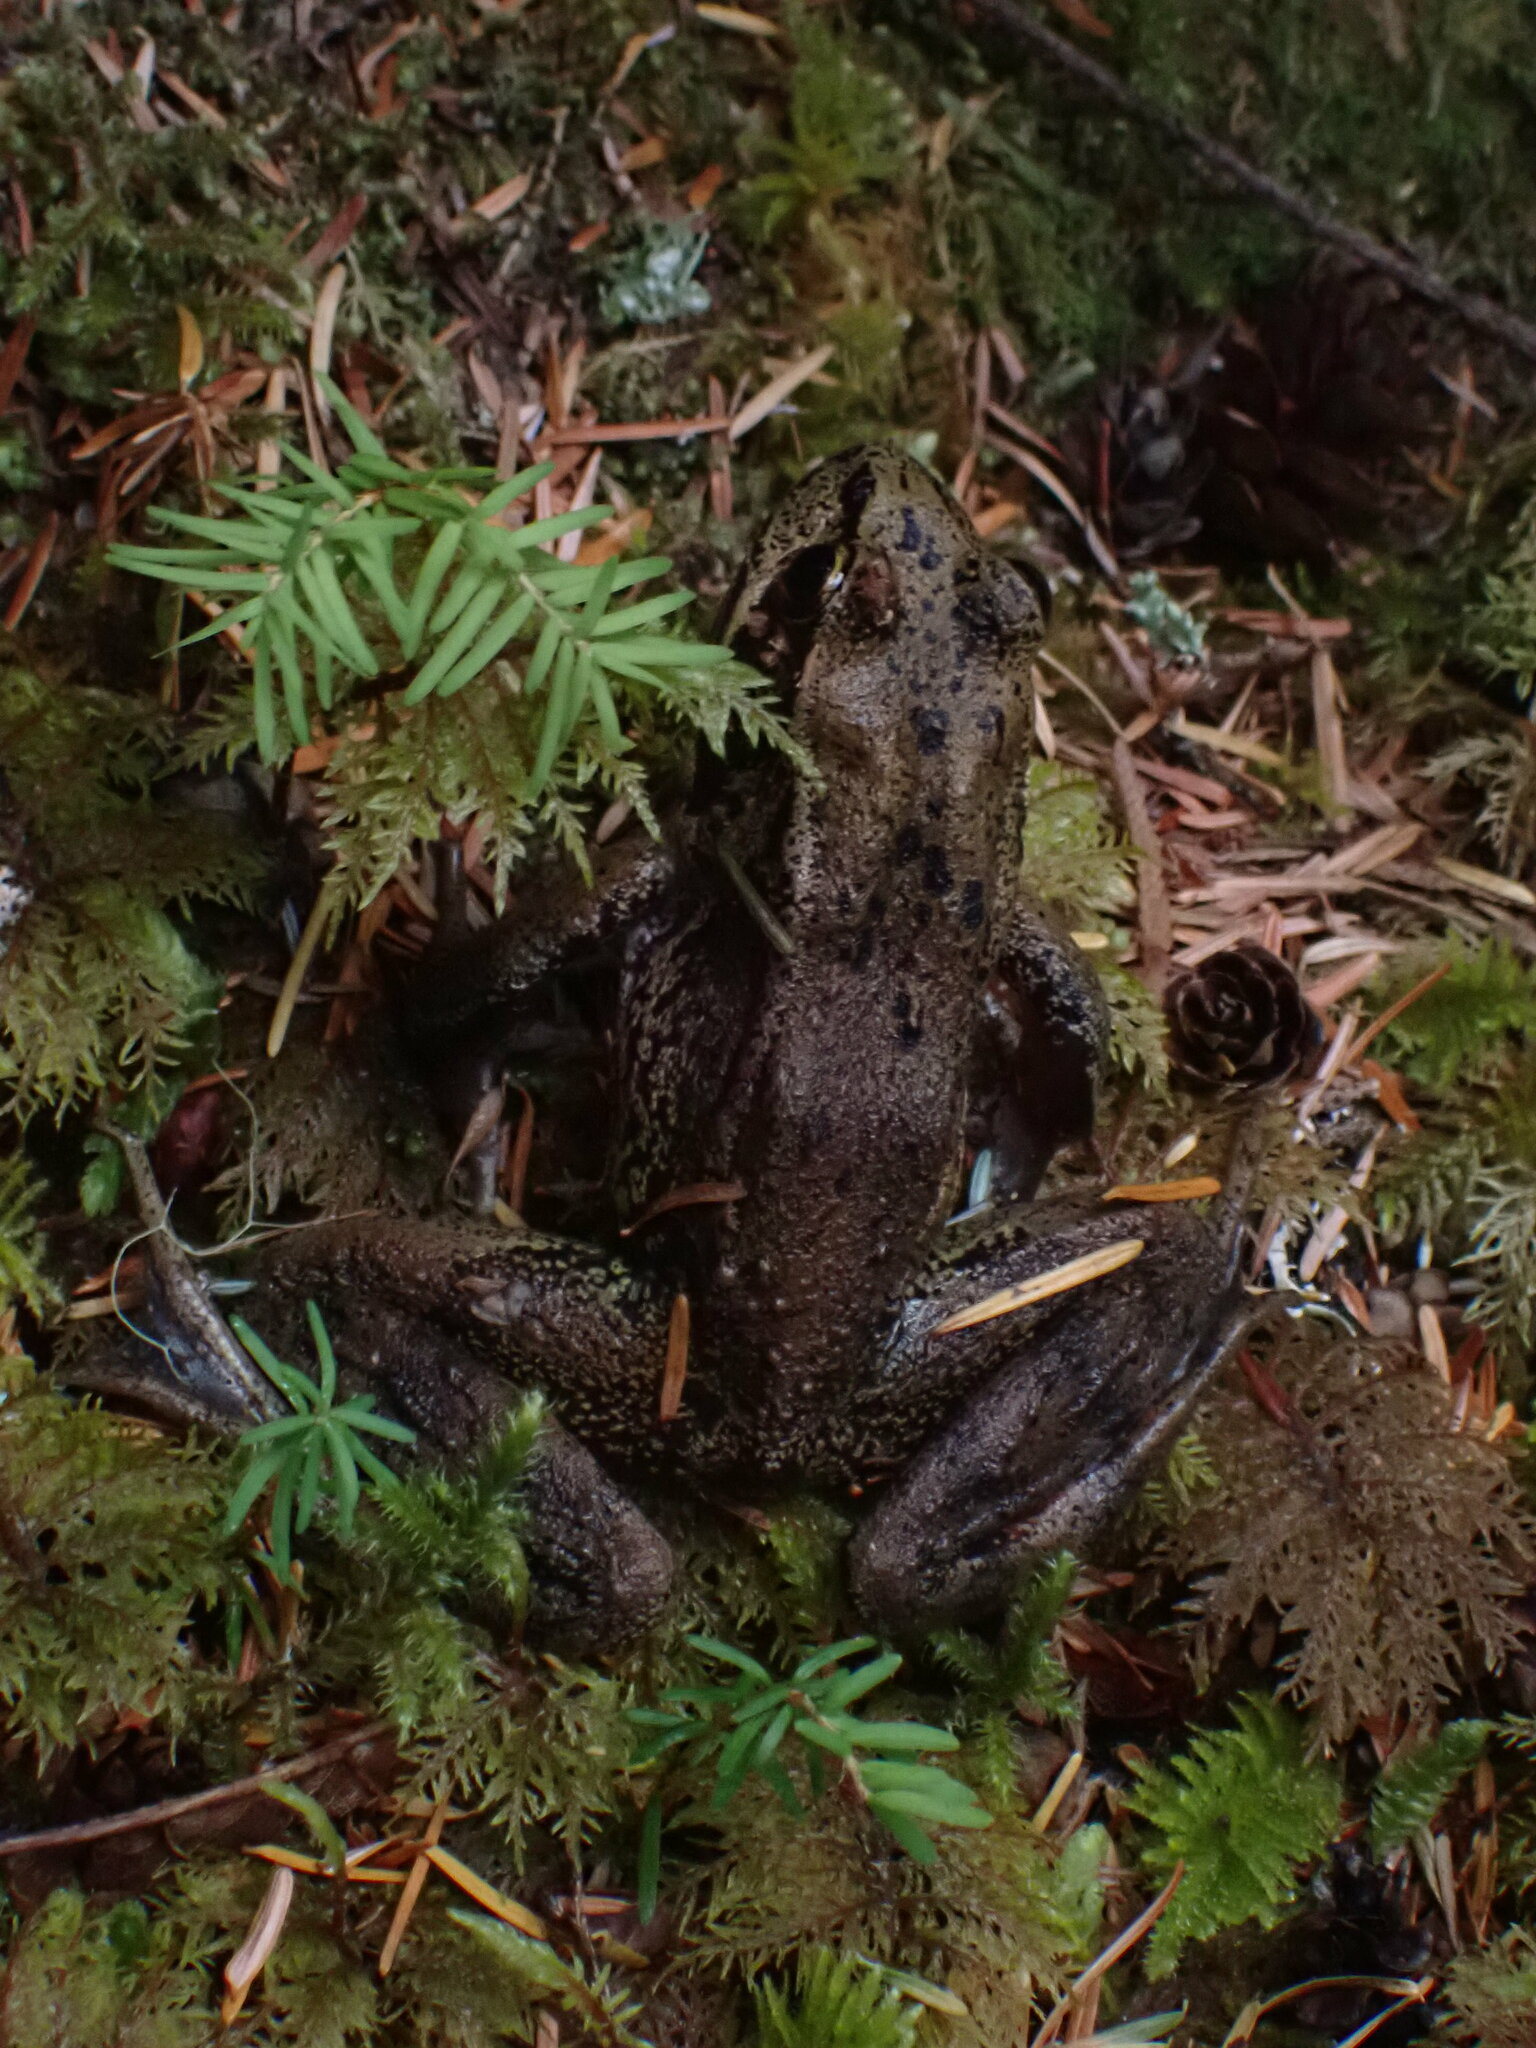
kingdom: Animalia
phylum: Chordata
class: Amphibia
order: Anura
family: Ranidae
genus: Rana
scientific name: Rana aurora
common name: Red-legged frog
